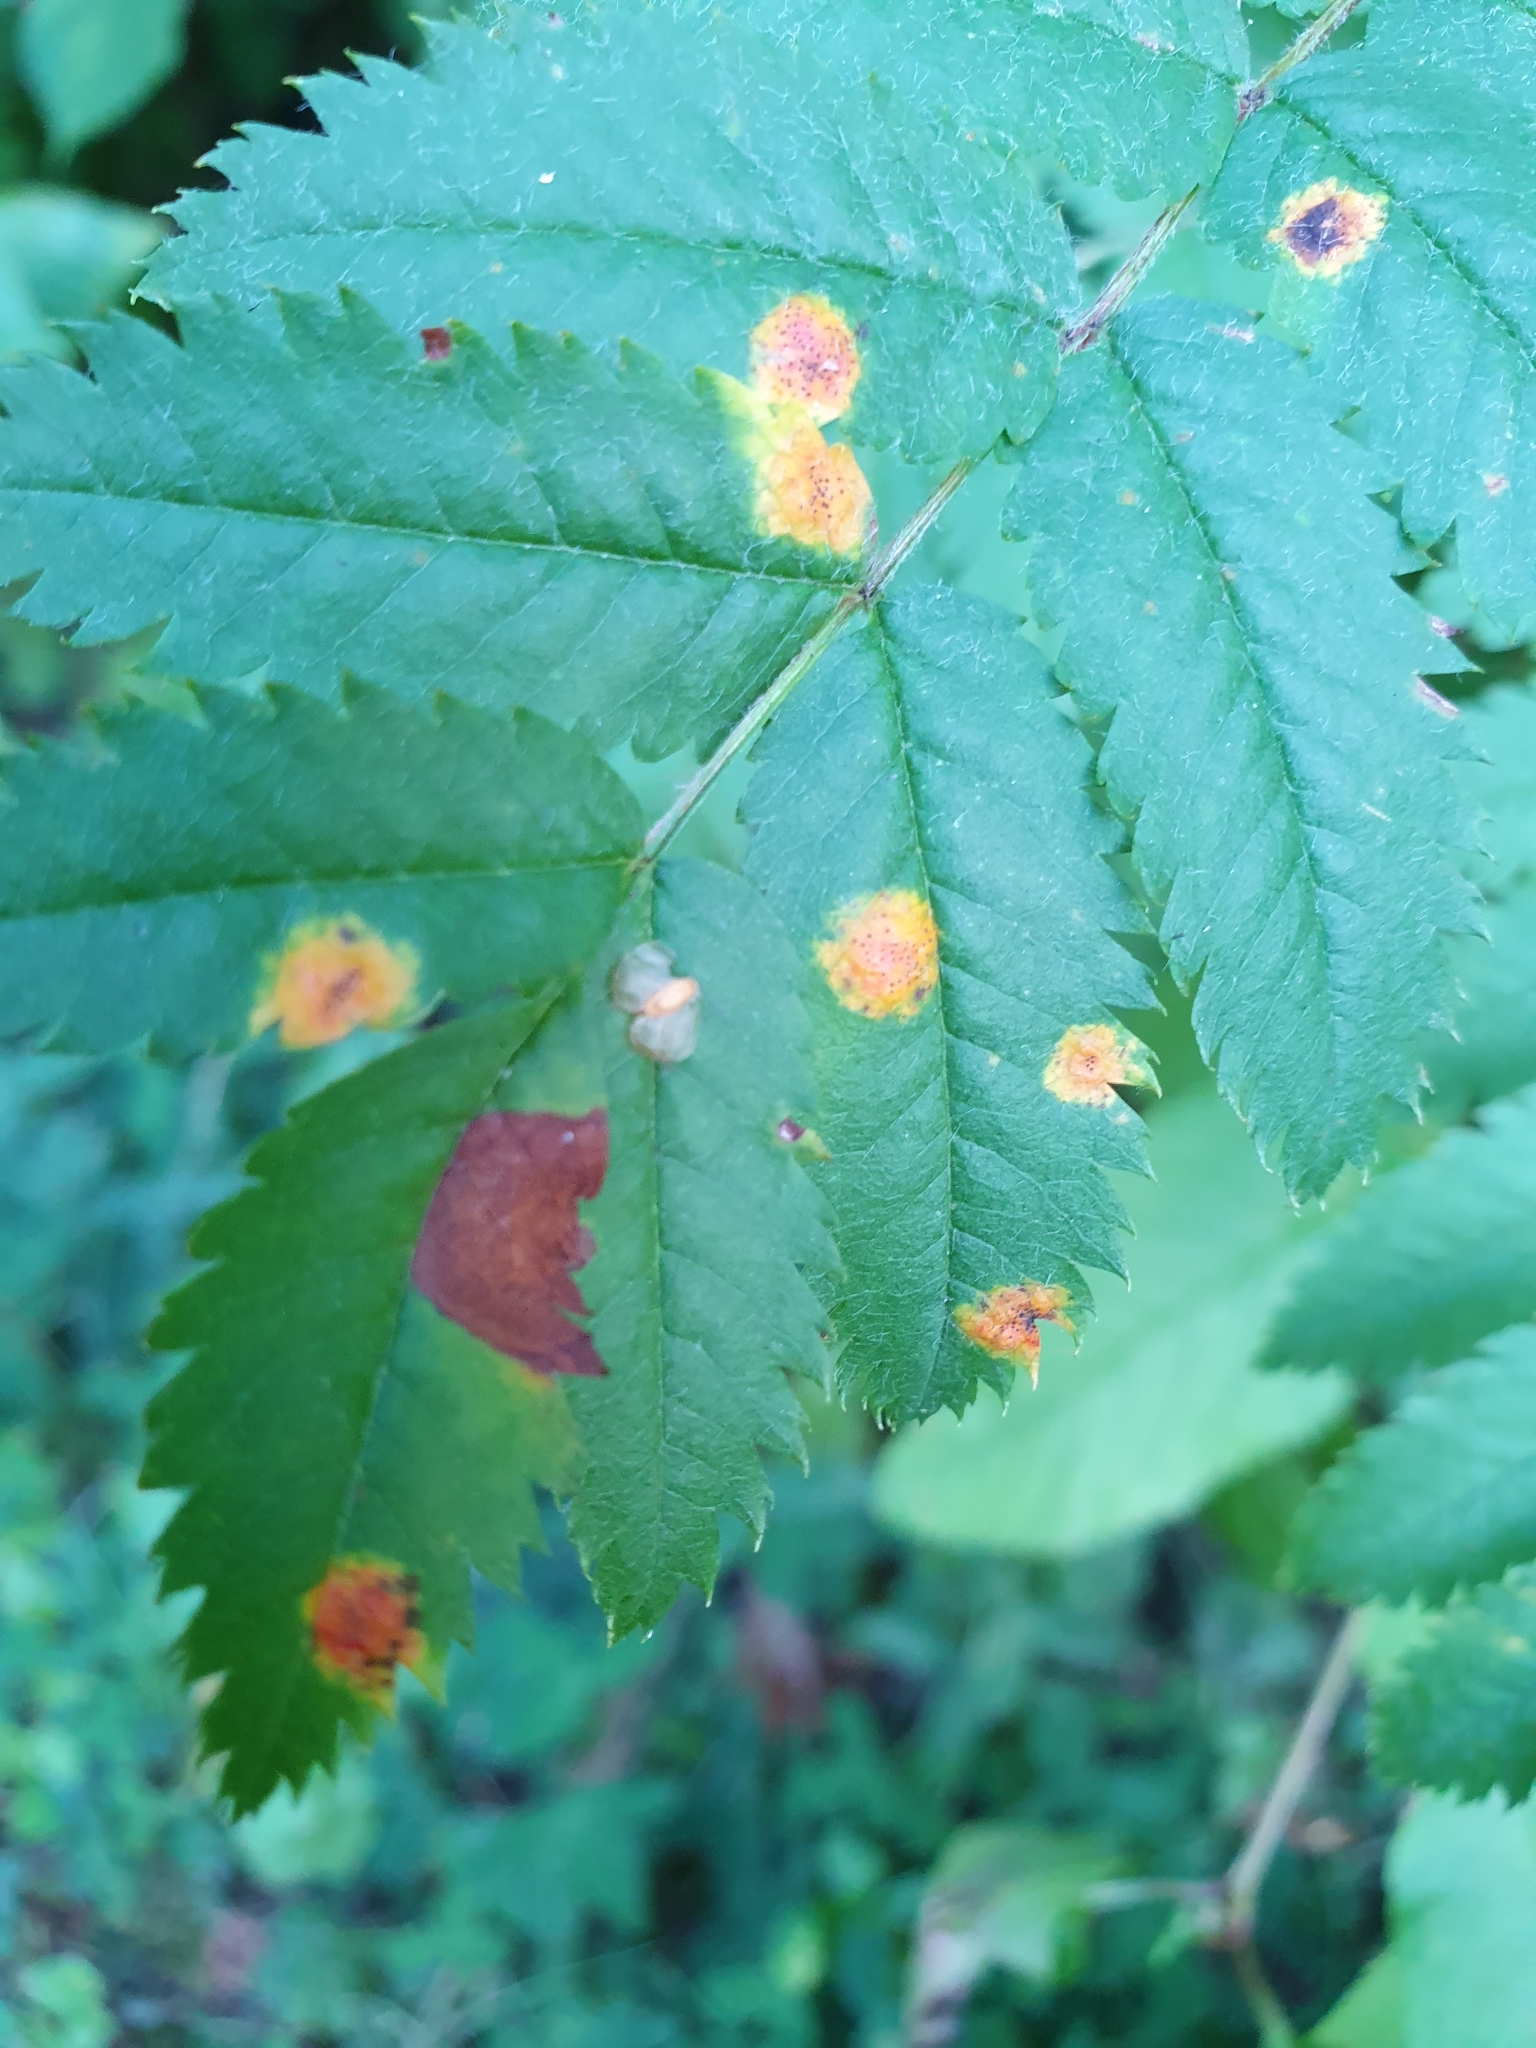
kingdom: Fungi
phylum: Basidiomycota
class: Pucciniomycetes
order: Pucciniales
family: Gymnosporangiaceae
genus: Gymnosporangium
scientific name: Gymnosporangium cornutum
